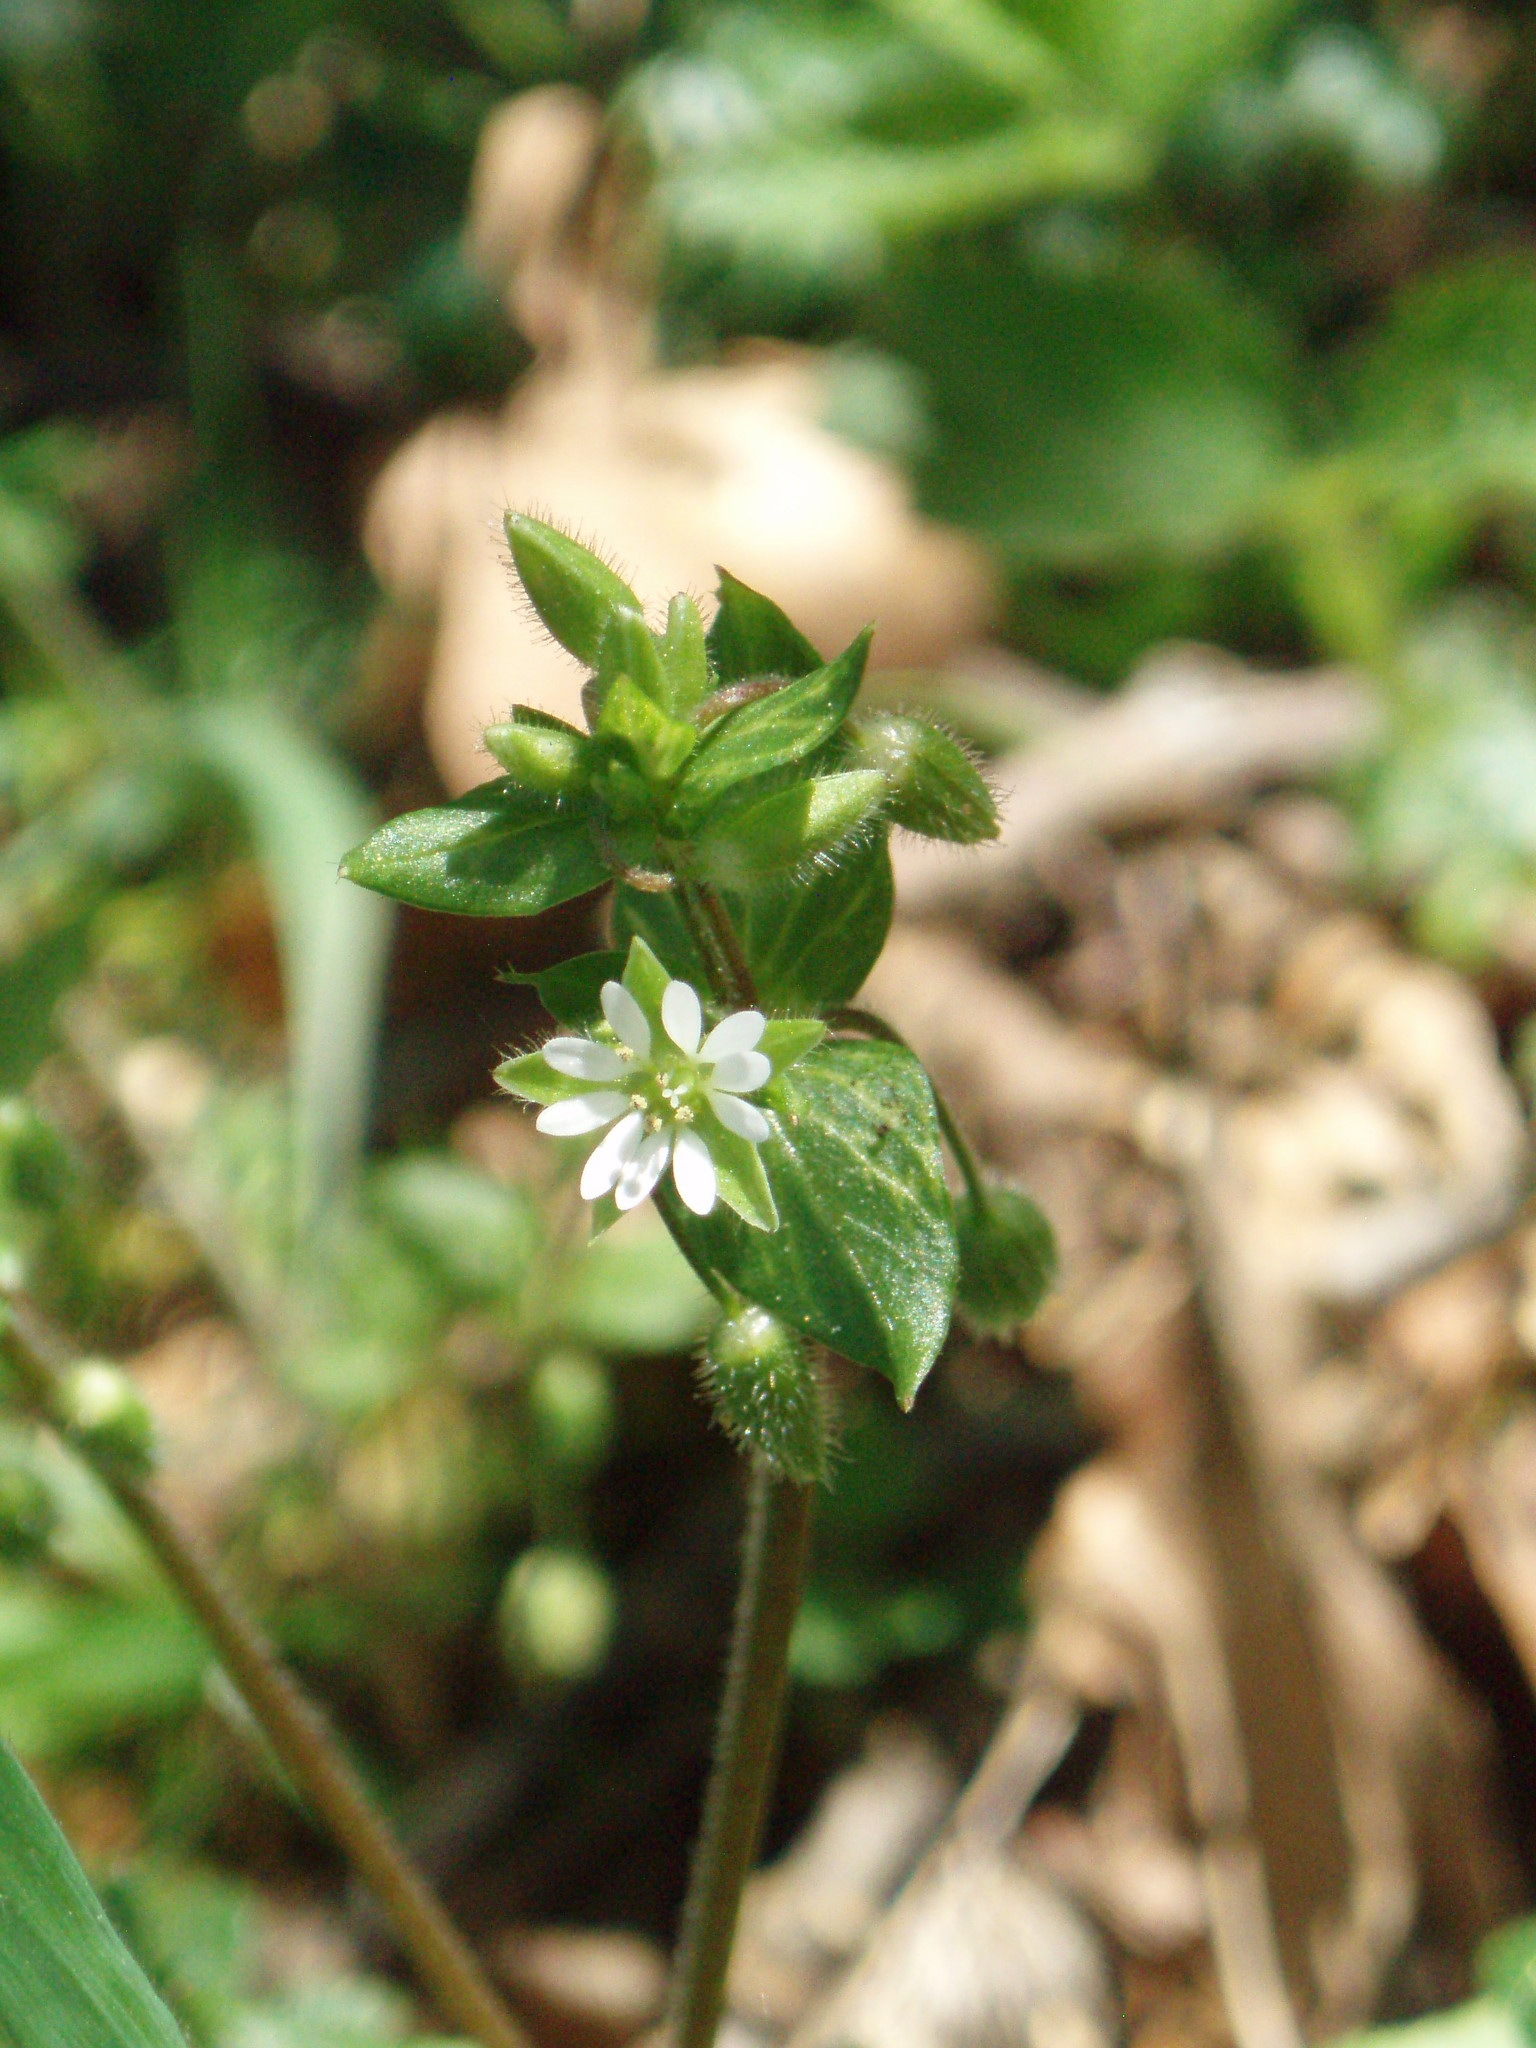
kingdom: Plantae
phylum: Tracheophyta
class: Magnoliopsida
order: Caryophyllales
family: Caryophyllaceae
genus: Stellaria
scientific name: Stellaria media
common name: Common chickweed
